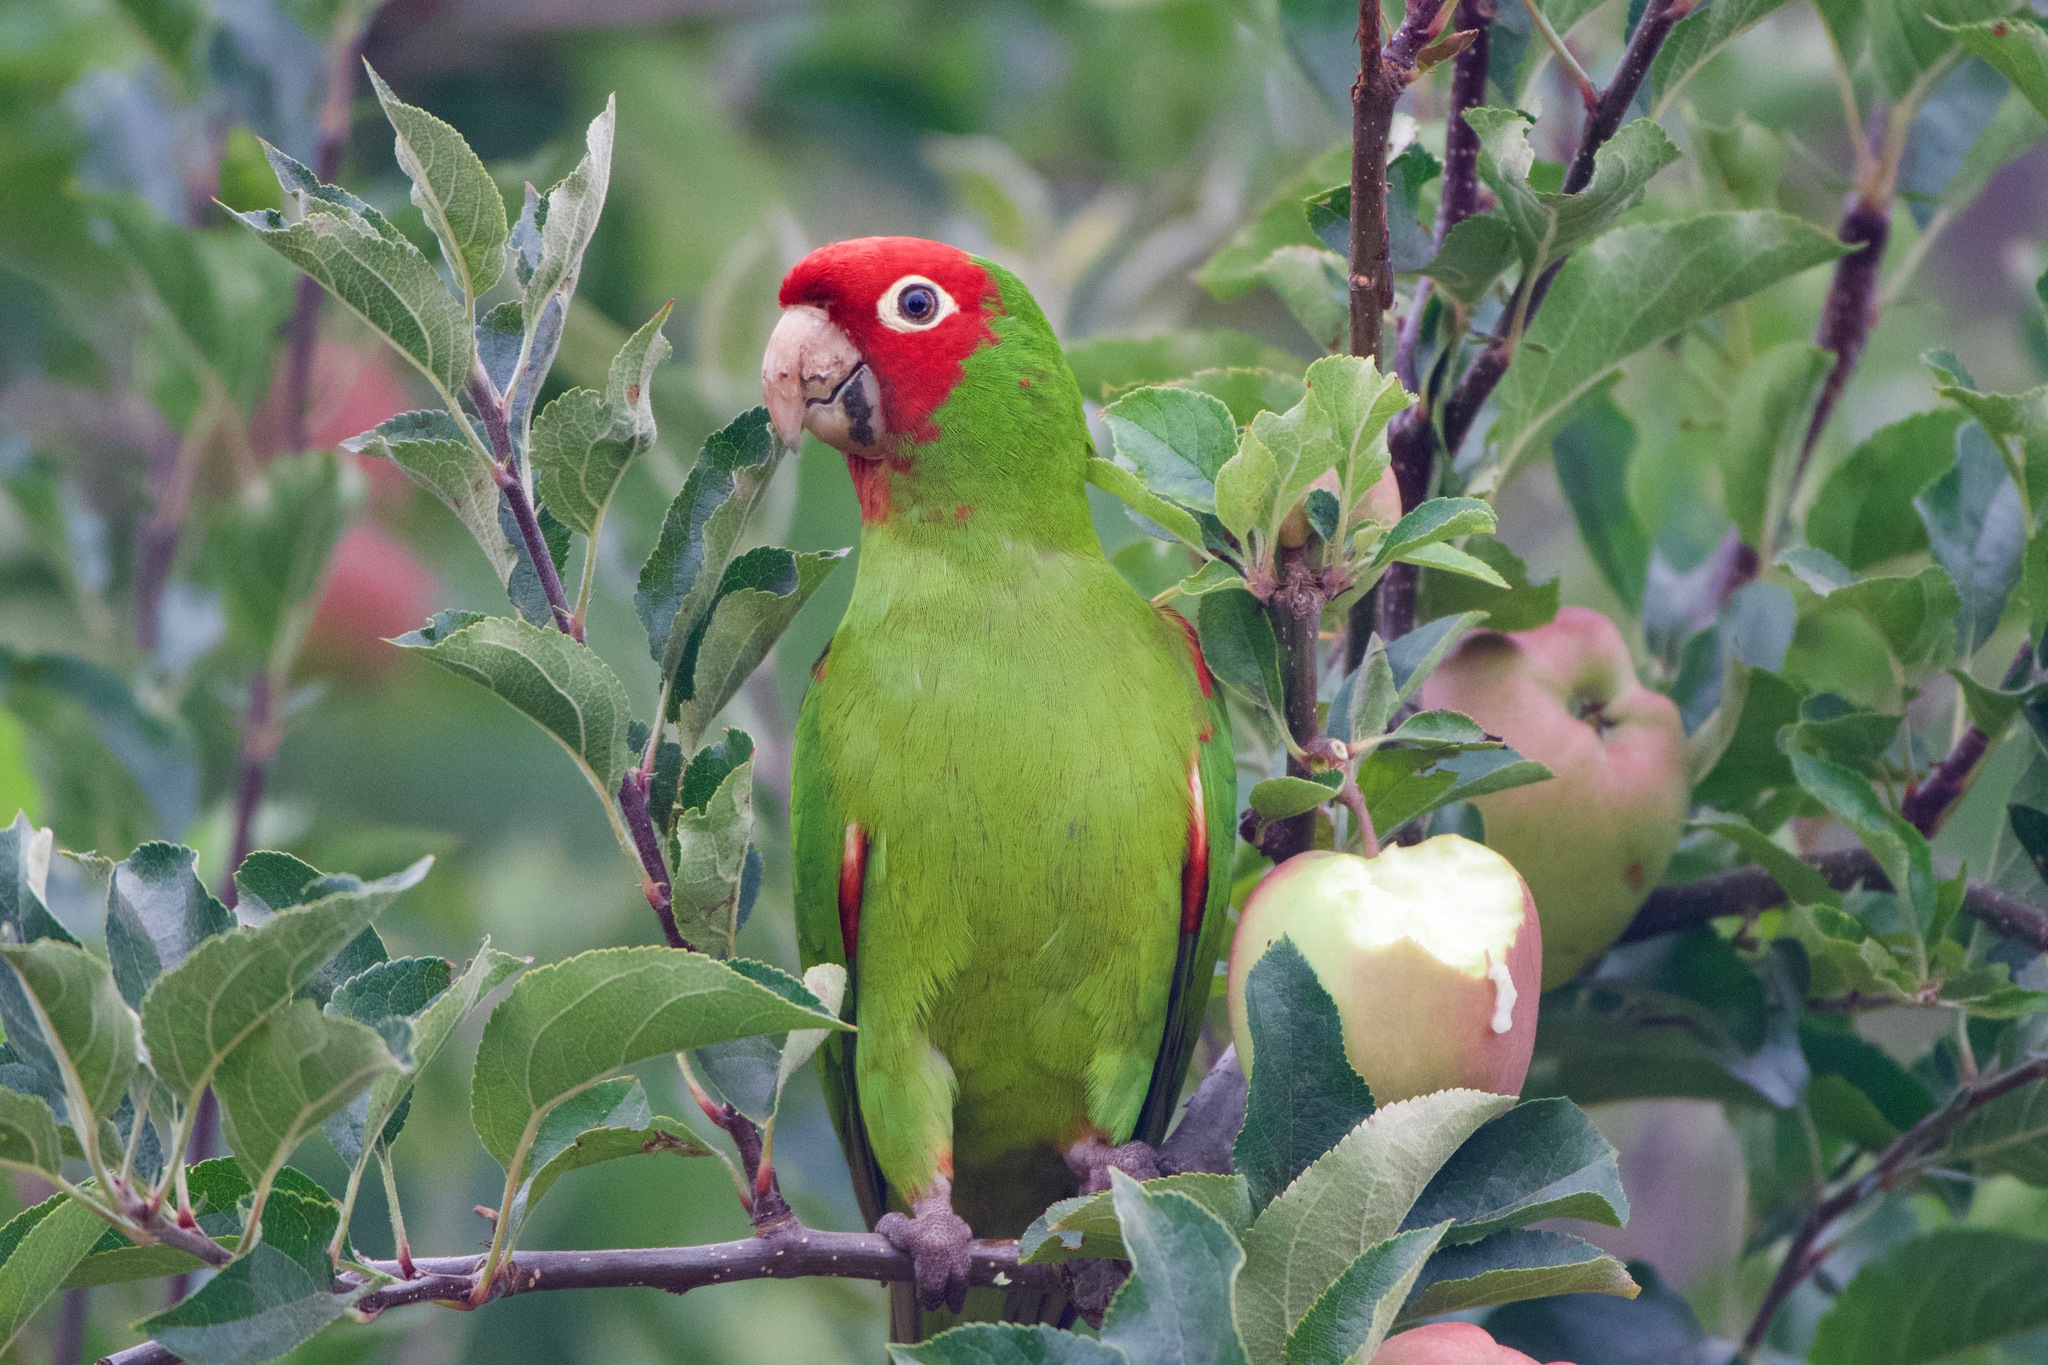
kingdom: Animalia
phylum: Chordata
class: Aves
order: Psittaciformes
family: Psittacidae
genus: Aratinga
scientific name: Aratinga erythrogenys
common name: Red-masked parakeet
